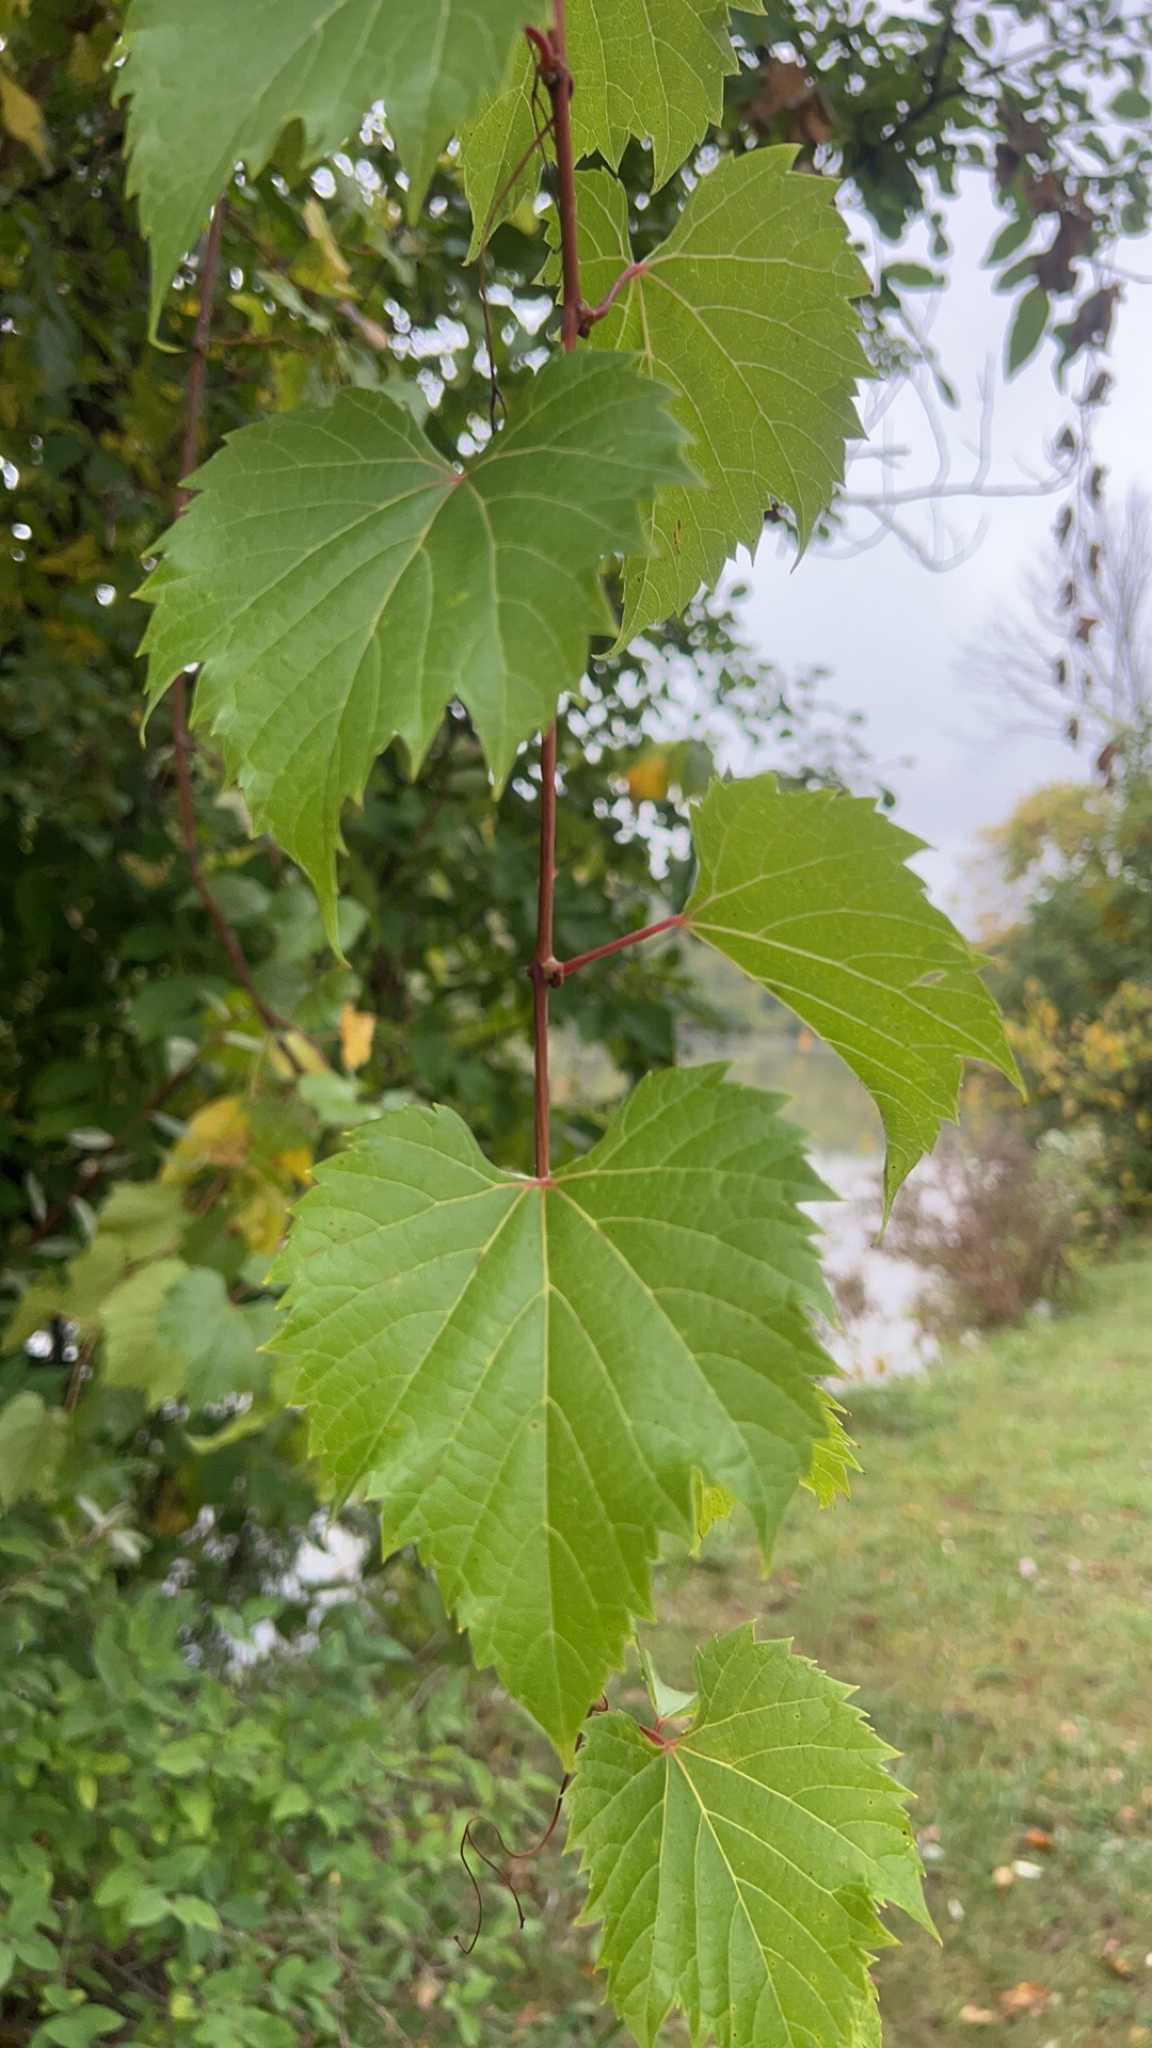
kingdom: Plantae
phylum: Tracheophyta
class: Magnoliopsida
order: Vitales
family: Vitaceae
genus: Vitis
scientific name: Vitis riparia
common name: Frost grape
